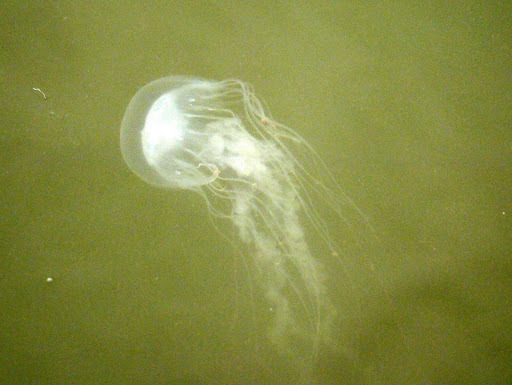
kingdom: Animalia
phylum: Cnidaria
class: Scyphozoa
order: Semaeostomeae
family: Pelagiidae
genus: Chrysaora
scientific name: Chrysaora chesapeakei
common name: Bay nettle
